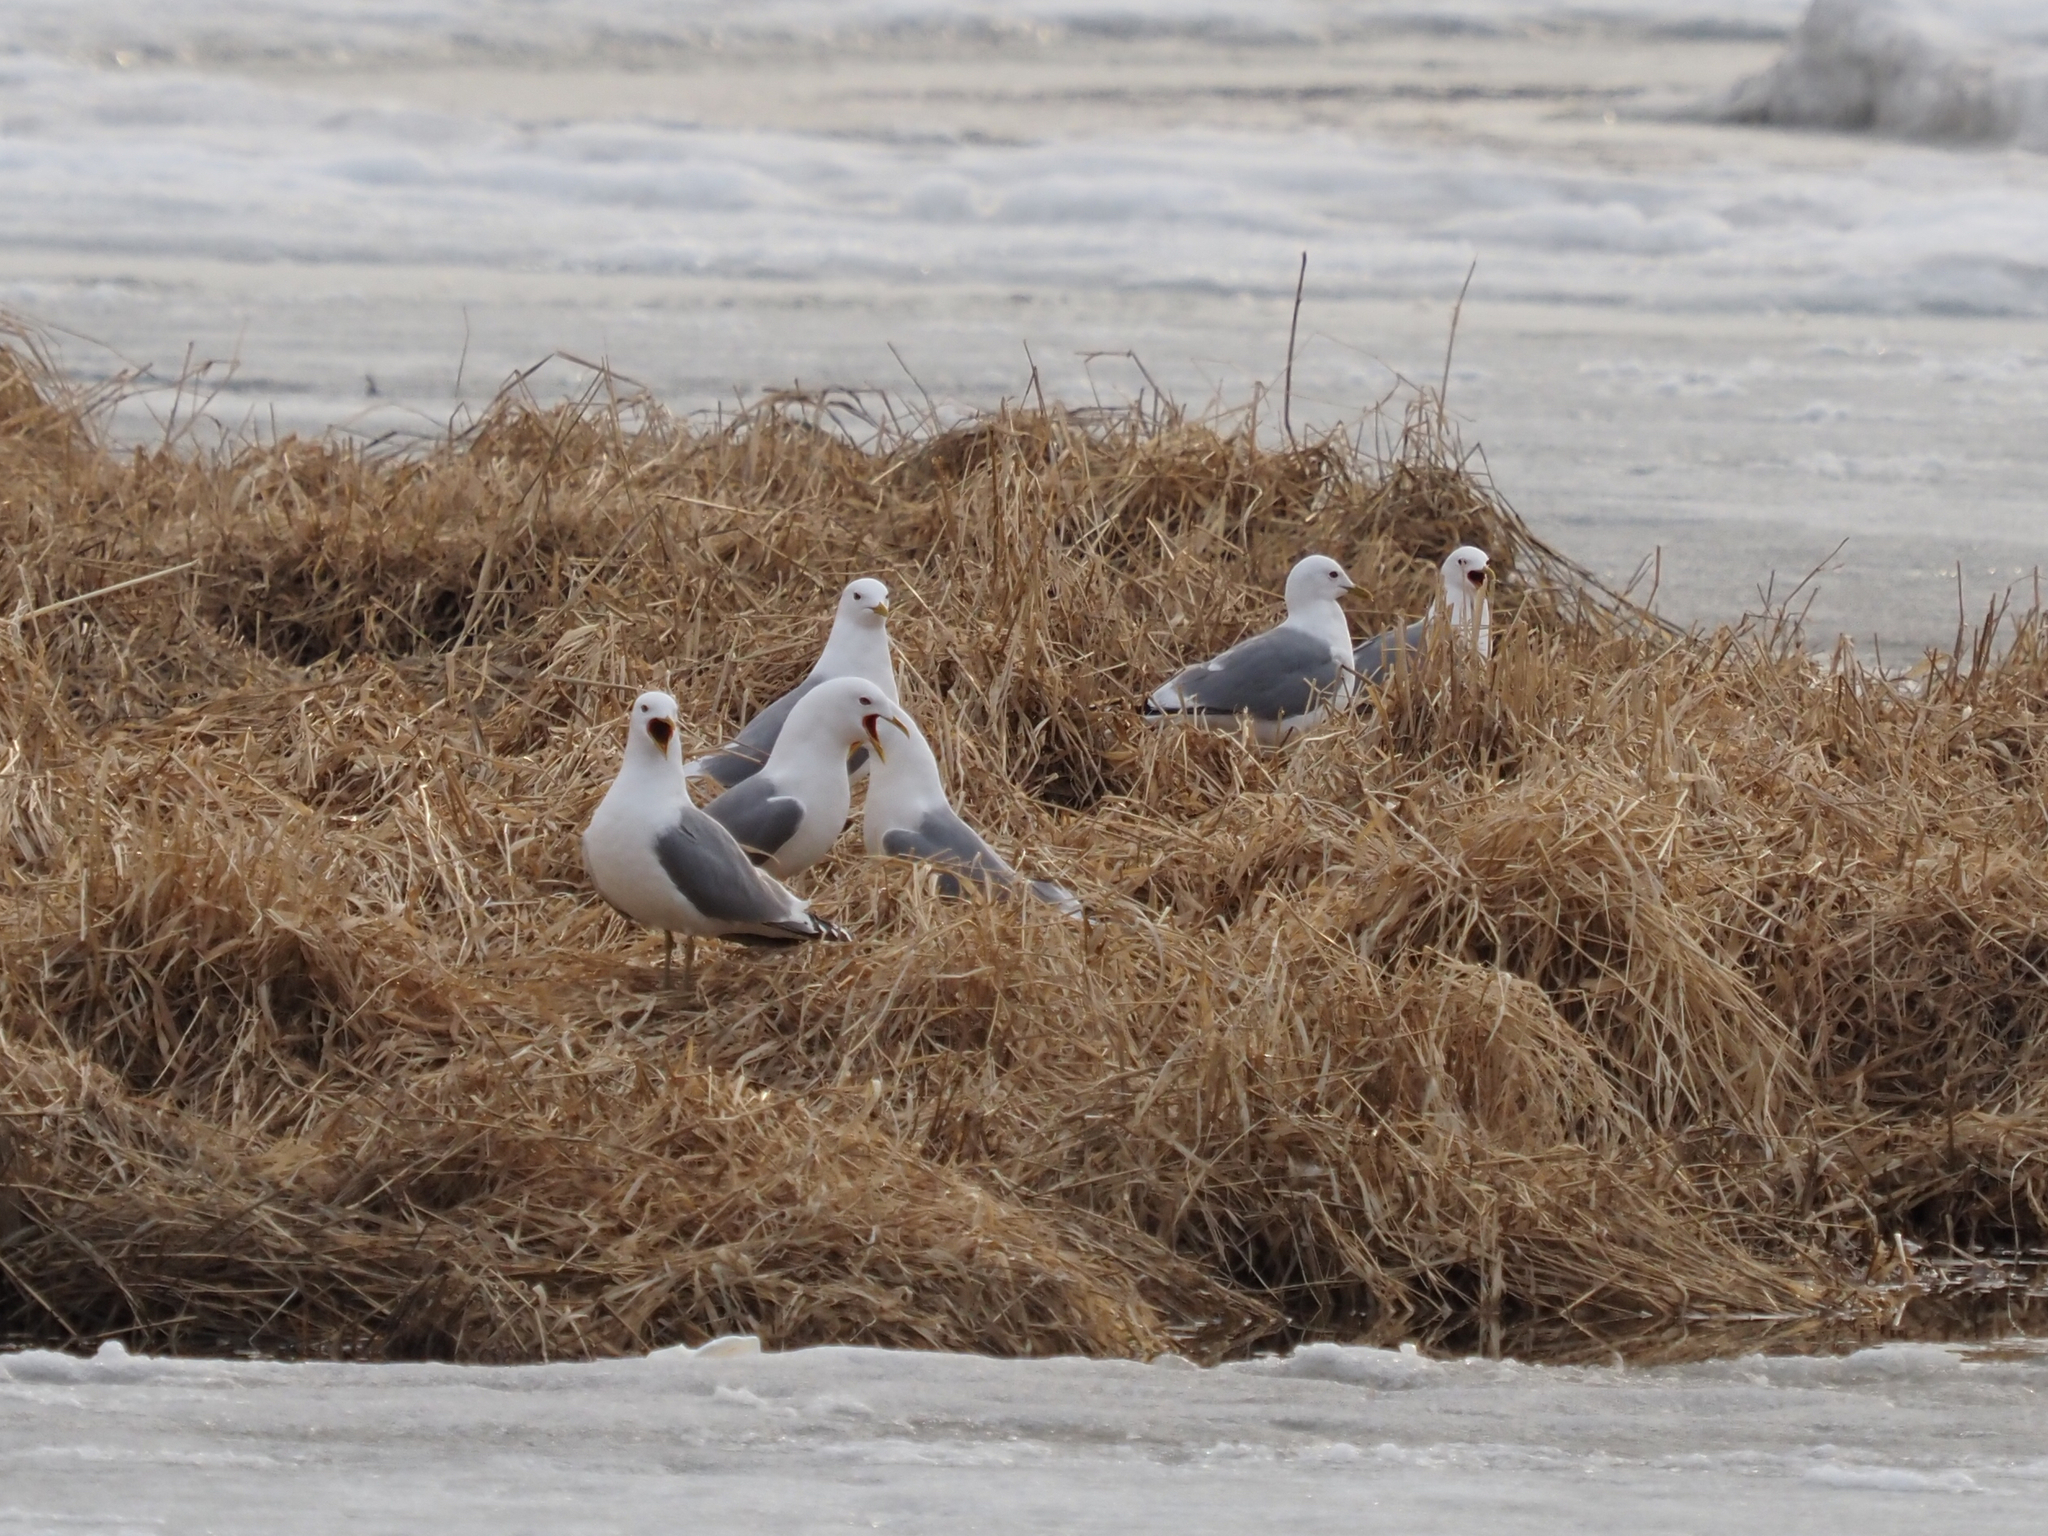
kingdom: Animalia
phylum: Chordata
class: Aves
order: Charadriiformes
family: Laridae
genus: Larus
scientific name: Larus brachyrhynchus
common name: Short-billed gull
